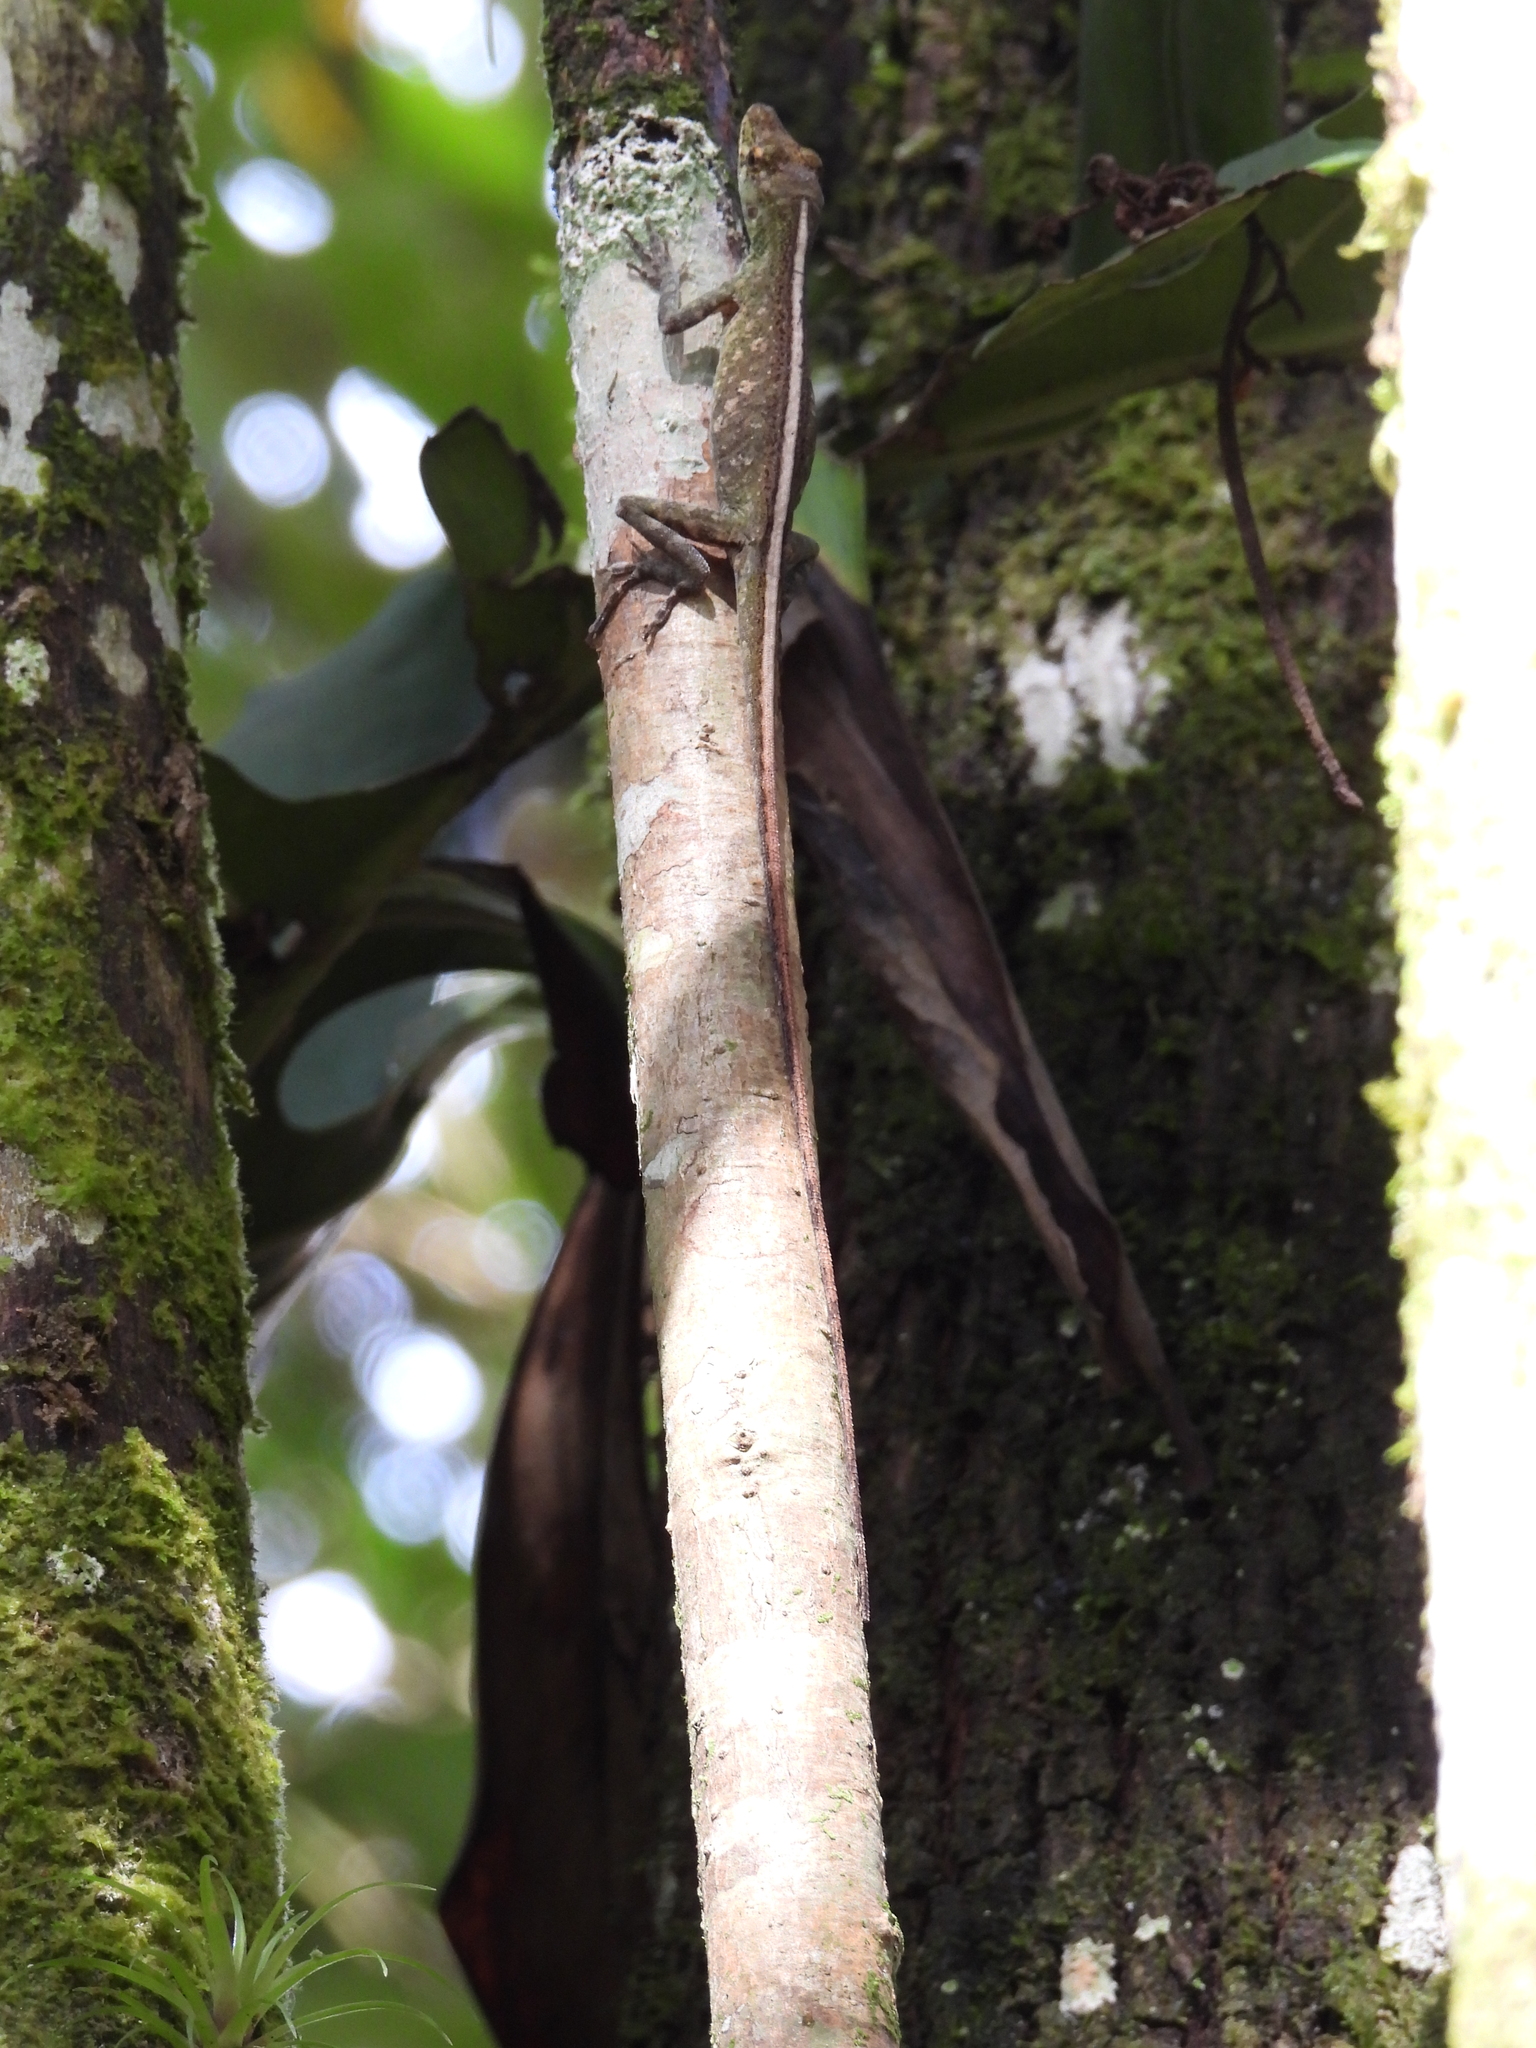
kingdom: Animalia
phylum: Chordata
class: Squamata
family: Dactyloidae
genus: Anolis
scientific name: Anolis huilae
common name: Huila anole
